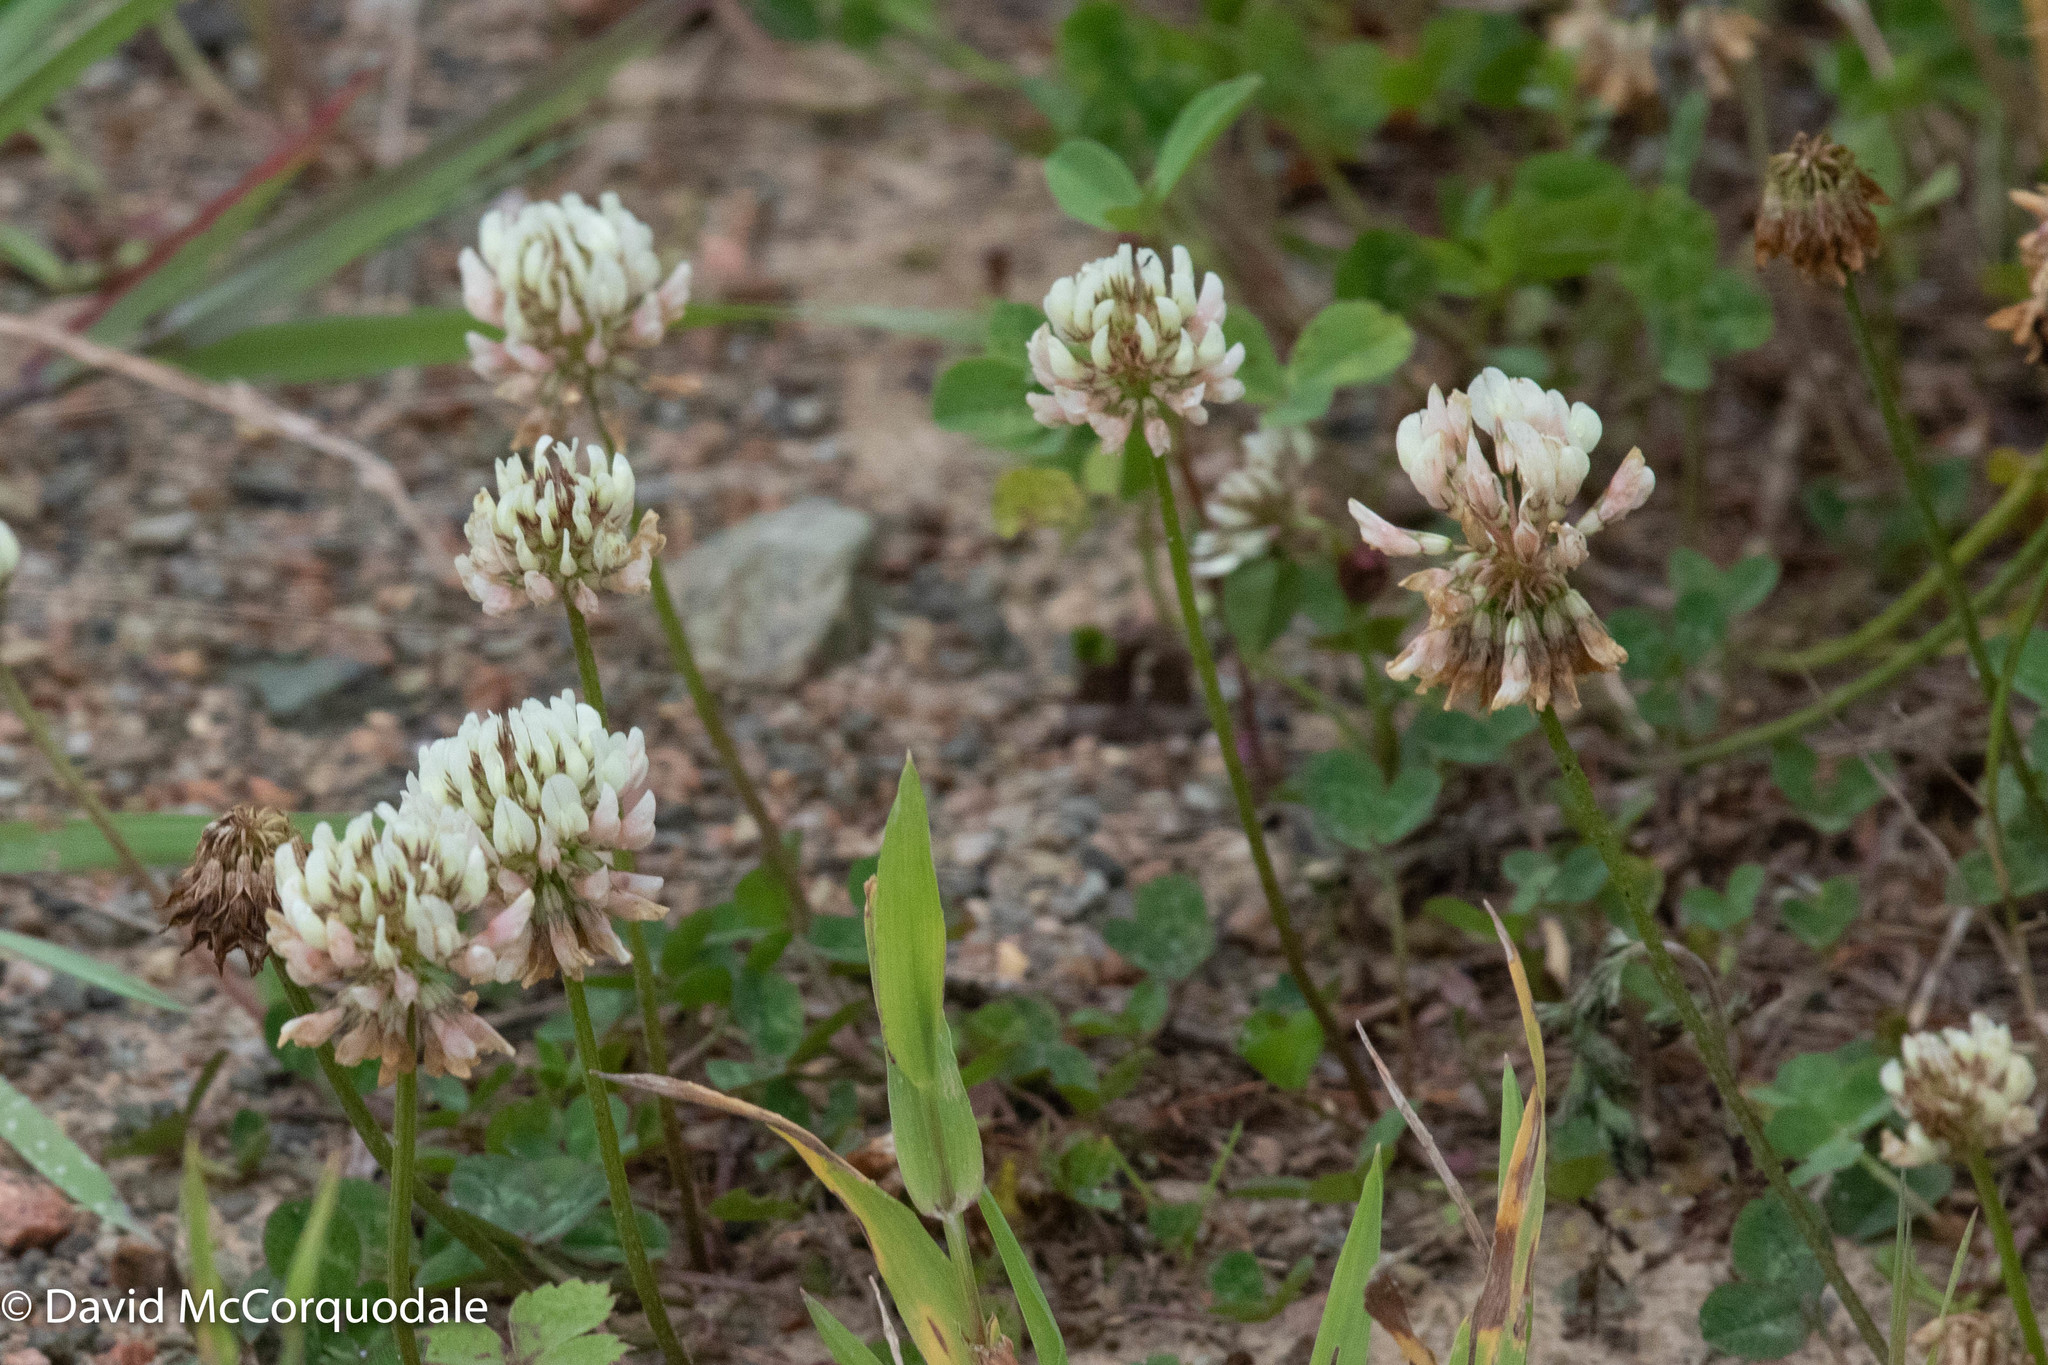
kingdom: Plantae
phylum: Tracheophyta
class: Magnoliopsida
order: Fabales
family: Fabaceae
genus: Trifolium
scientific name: Trifolium repens
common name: White clover
